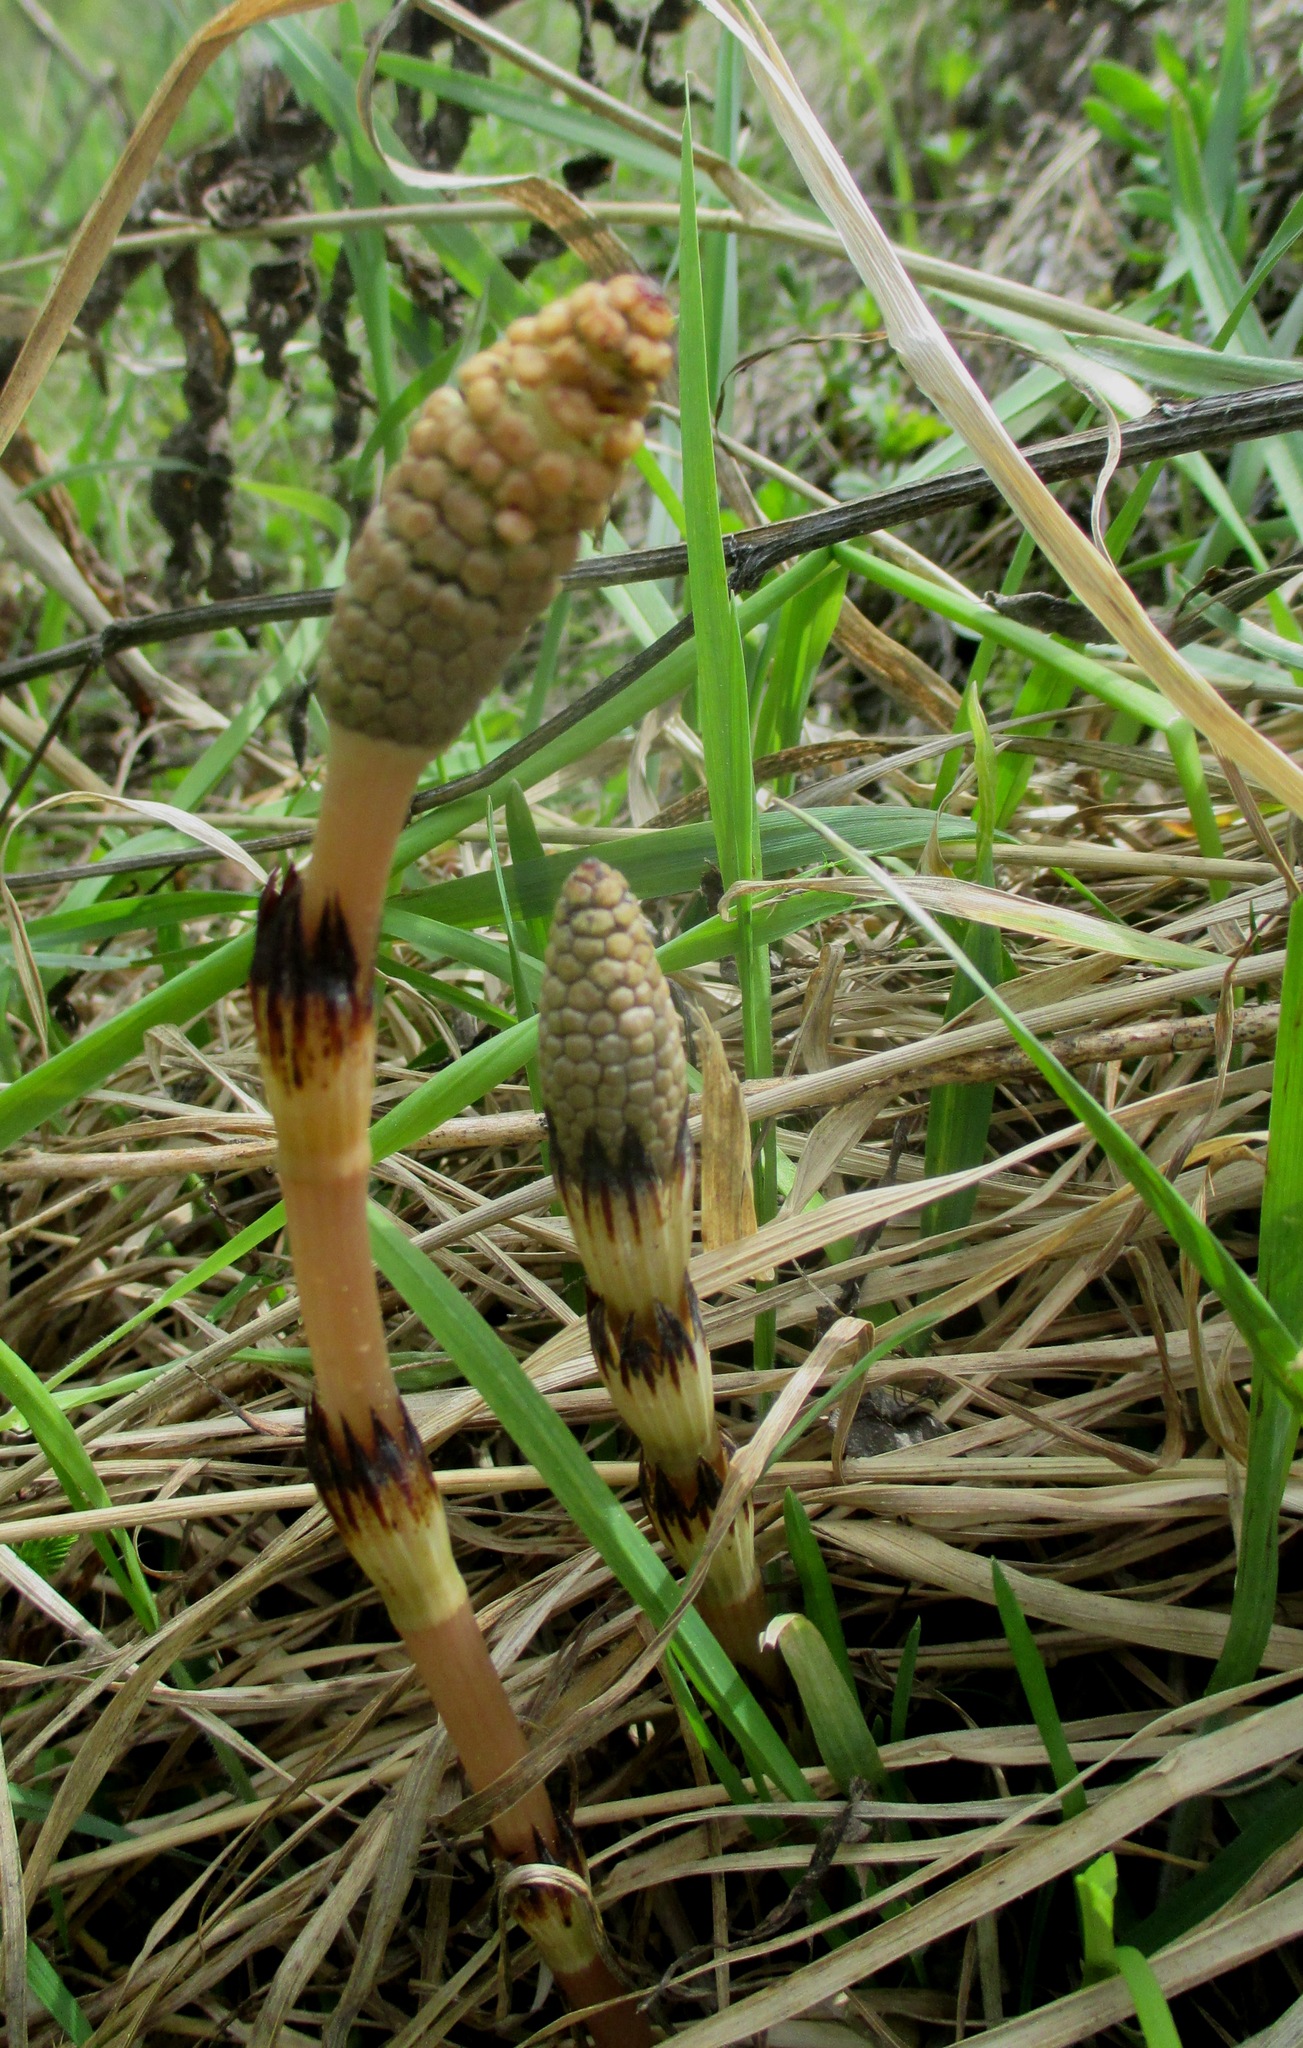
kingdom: Plantae
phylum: Tracheophyta
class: Polypodiopsida
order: Equisetales
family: Equisetaceae
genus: Equisetum
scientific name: Equisetum arvense
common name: Field horsetail
